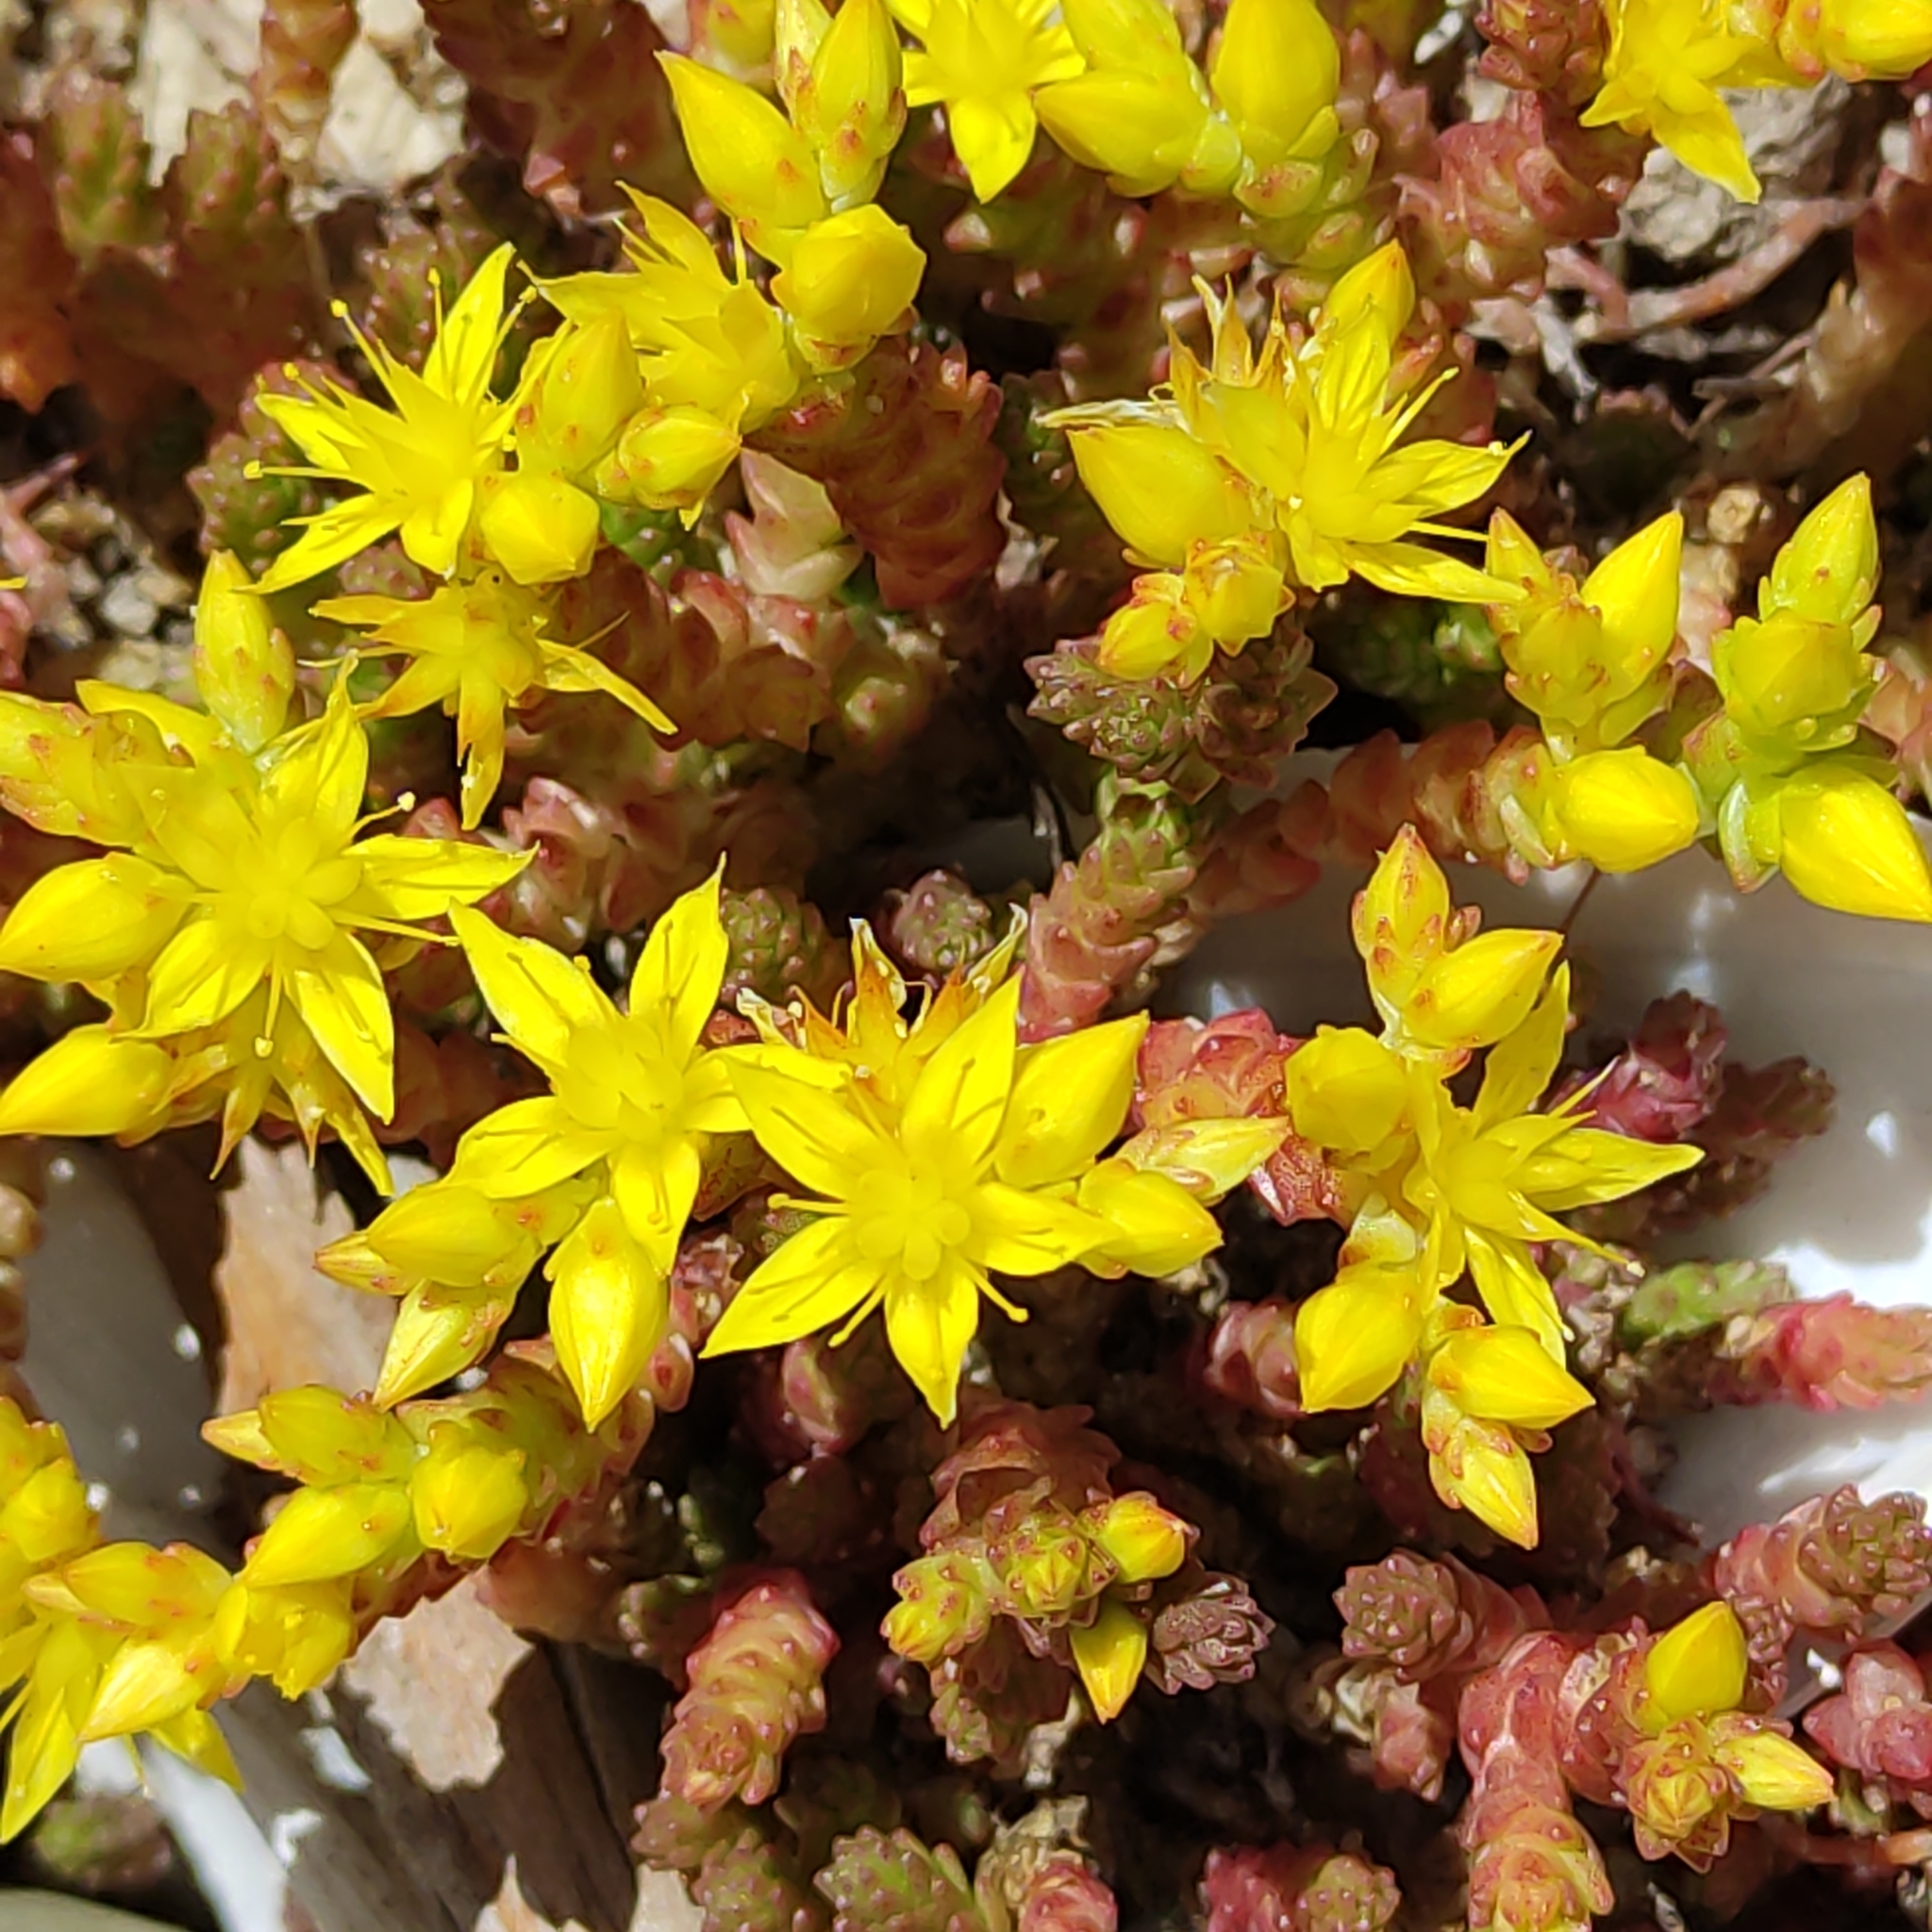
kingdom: Plantae
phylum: Tracheophyta
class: Magnoliopsida
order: Saxifragales
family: Crassulaceae
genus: Sedum
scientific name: Sedum acre
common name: Biting stonecrop
